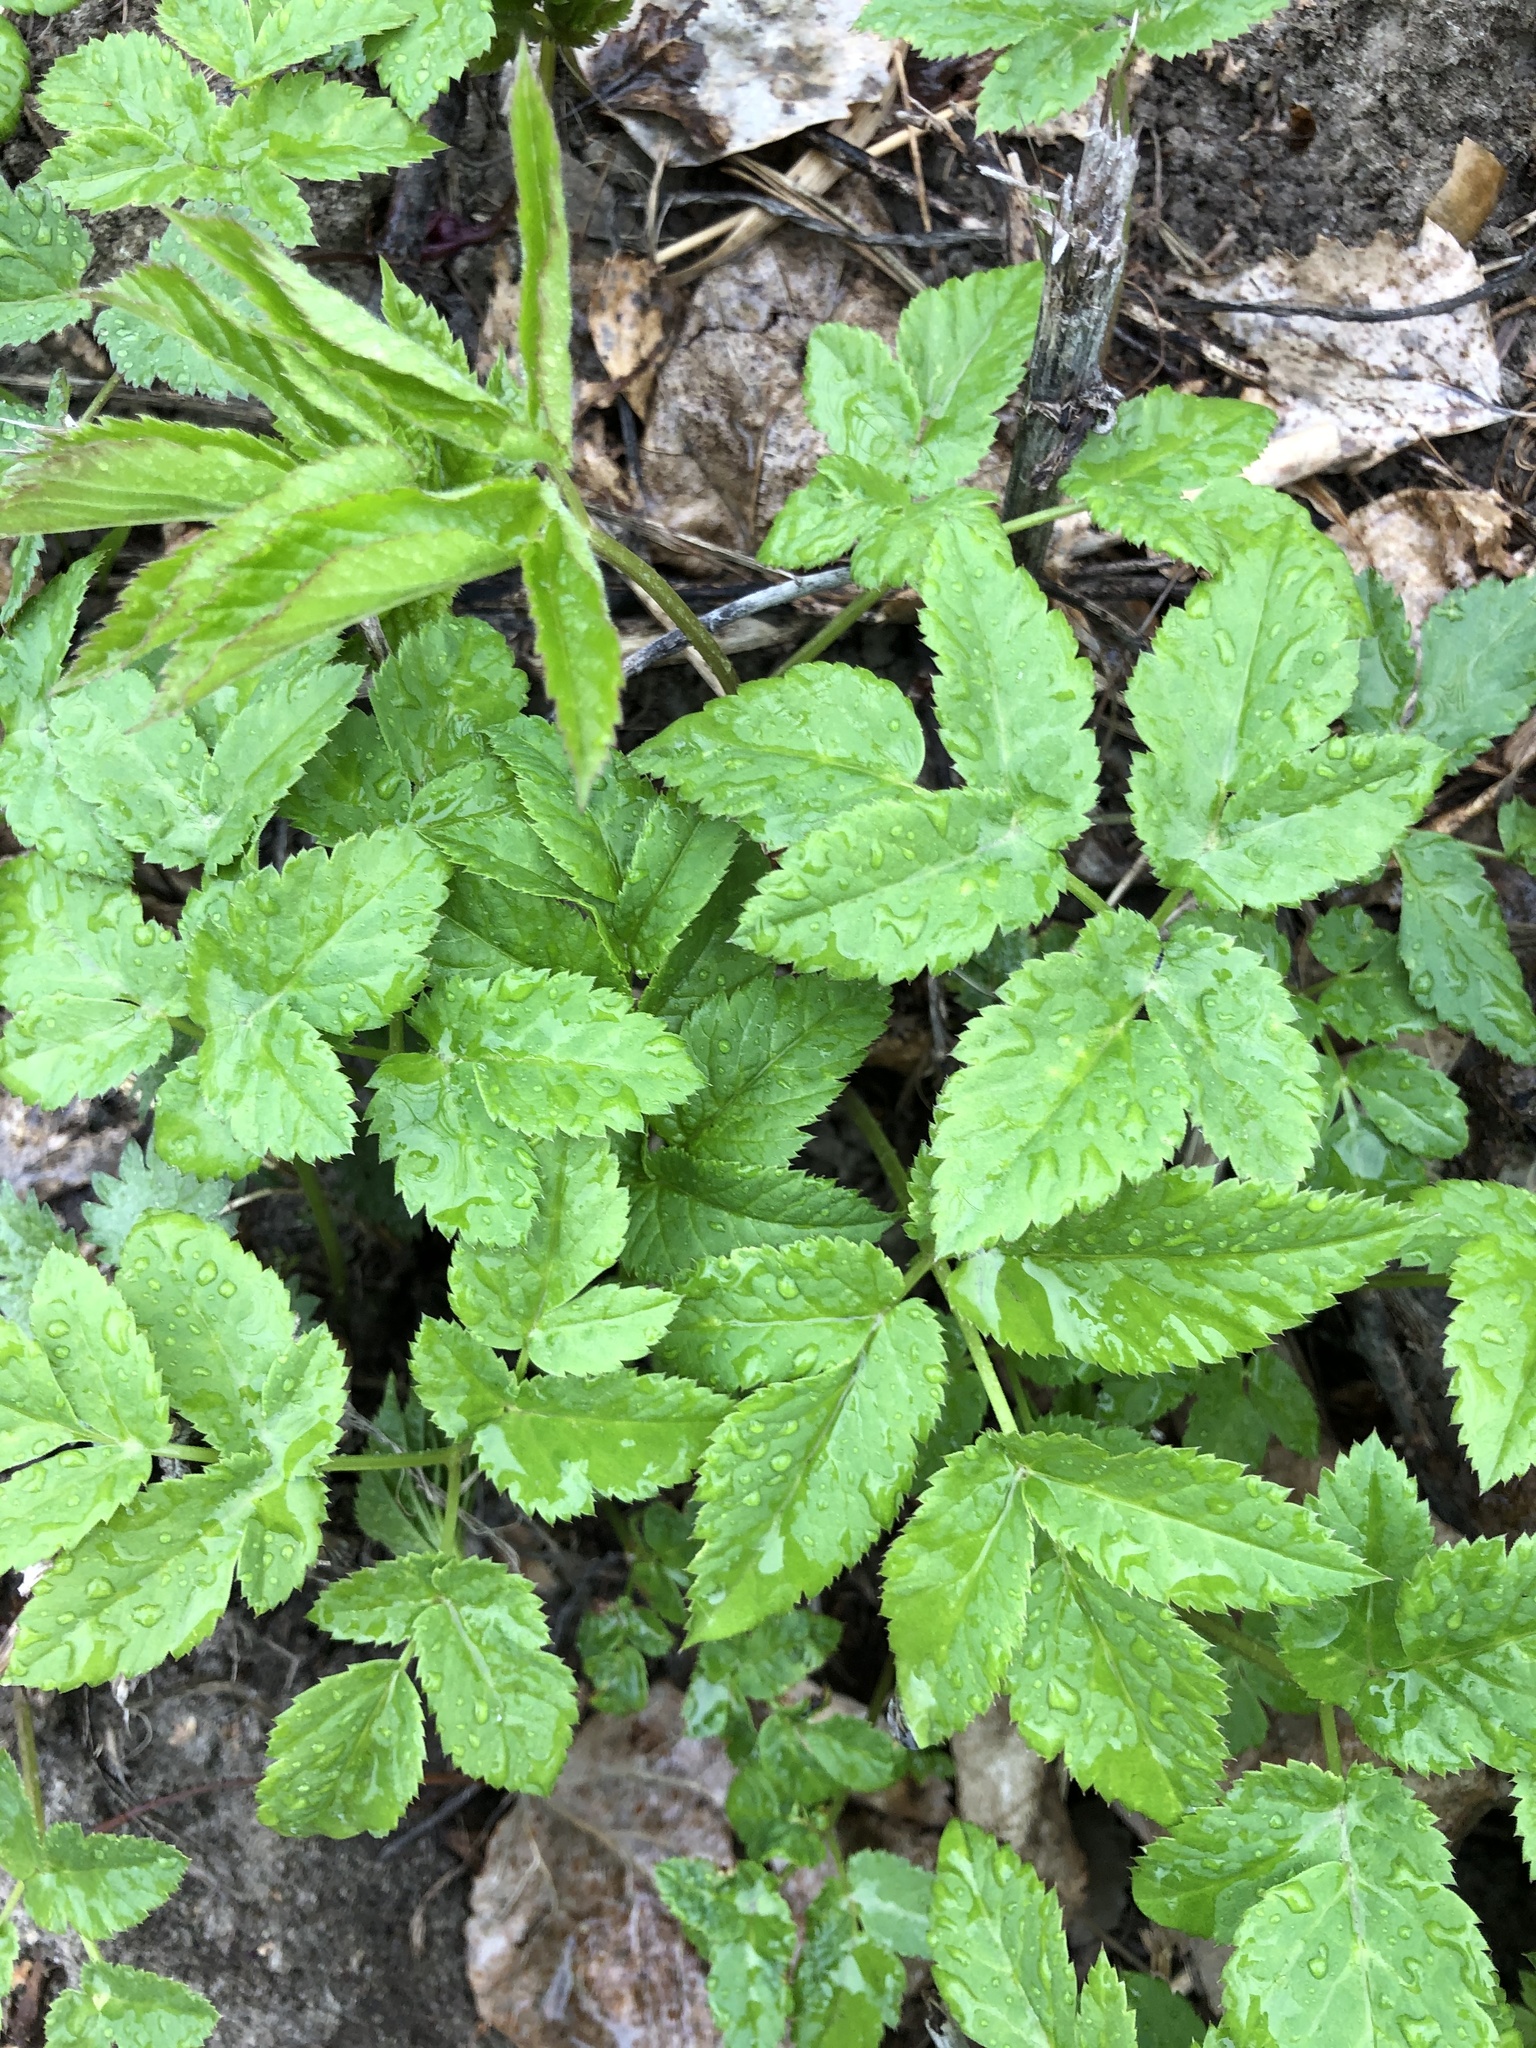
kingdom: Plantae
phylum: Tracheophyta
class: Magnoliopsida
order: Apiales
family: Apiaceae
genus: Aegopodium
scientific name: Aegopodium podagraria
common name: Ground-elder
